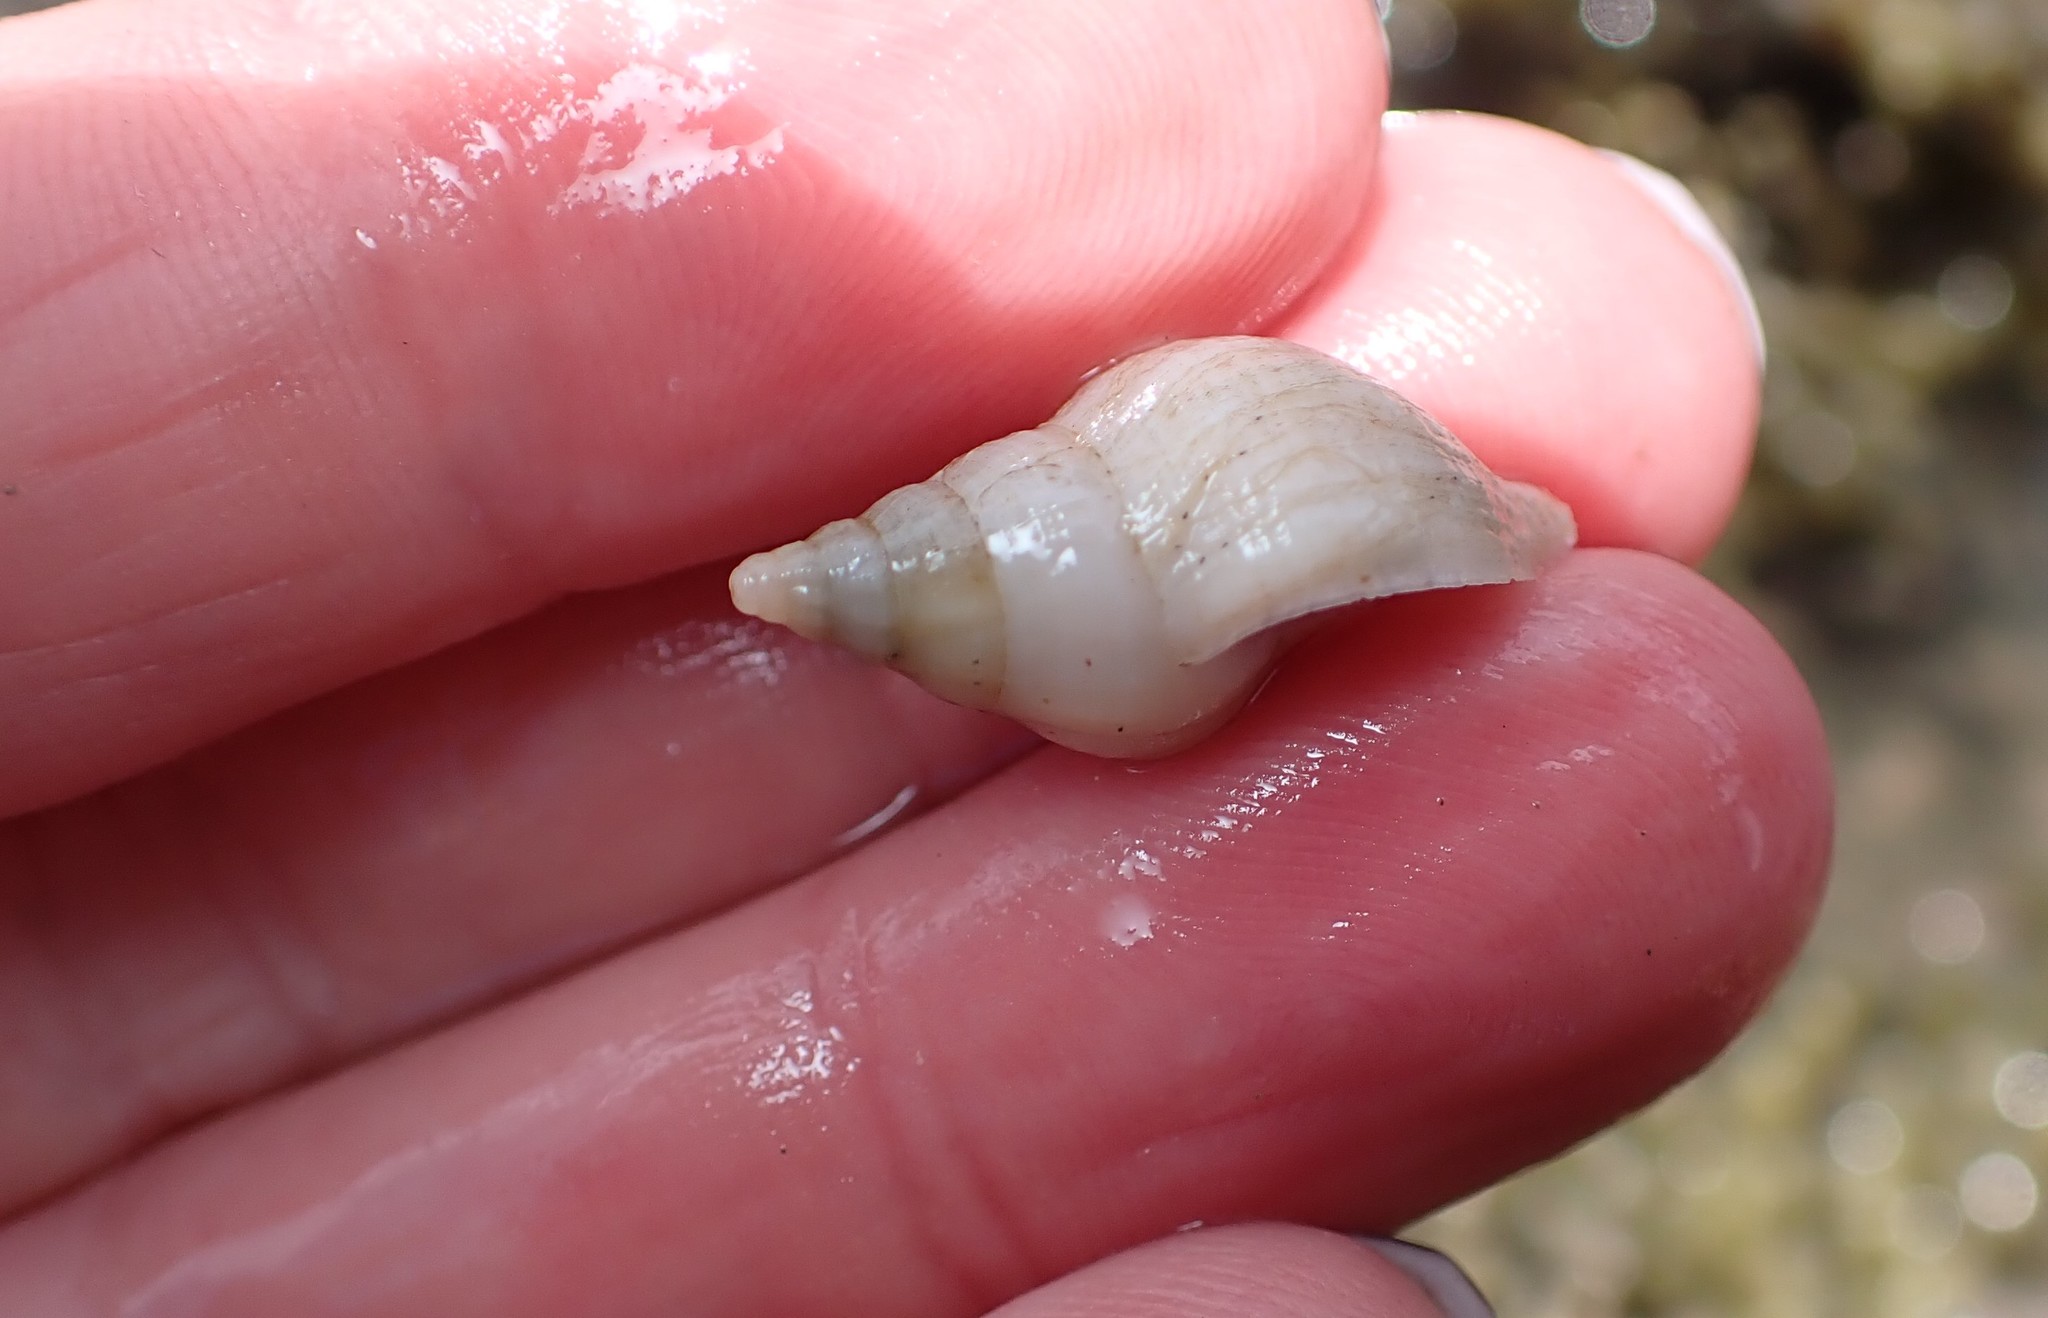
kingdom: Animalia
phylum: Mollusca
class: Gastropoda
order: Neogastropoda
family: Tudiclidae
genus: Buccinulum
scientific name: Buccinulum linea
